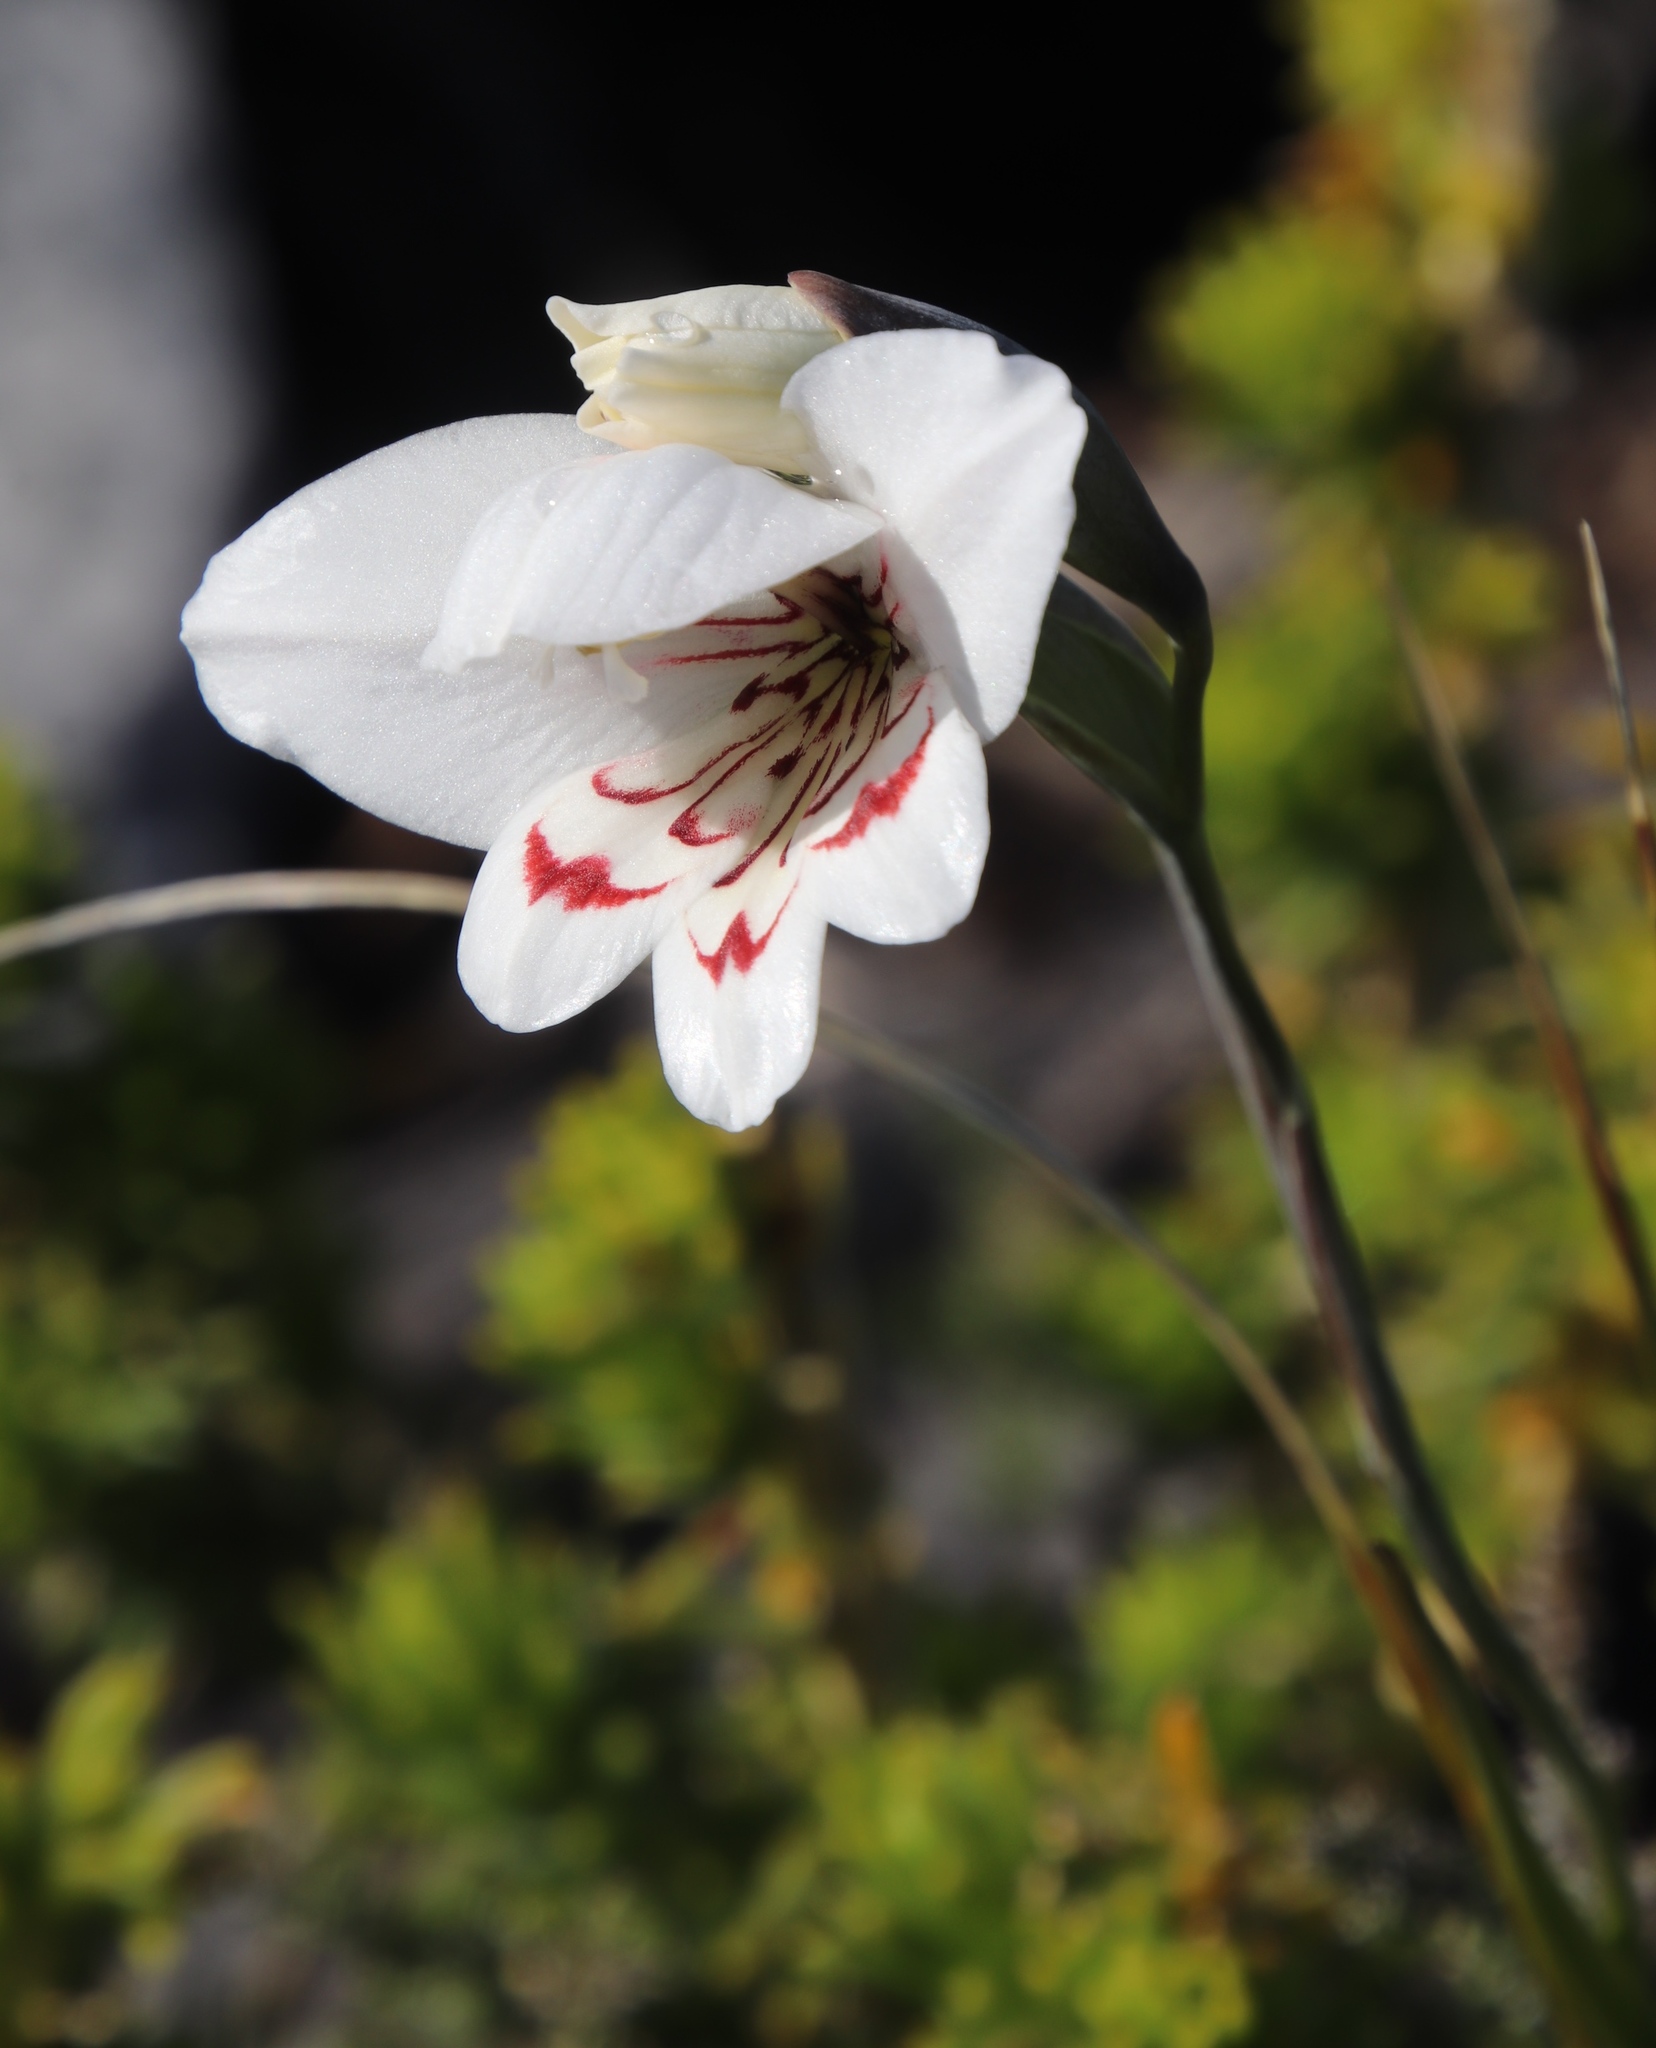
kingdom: Plantae
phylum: Tracheophyta
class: Liliopsida
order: Asparagales
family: Iridaceae
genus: Gladiolus
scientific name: Gladiolus debilis
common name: Painted-lady
